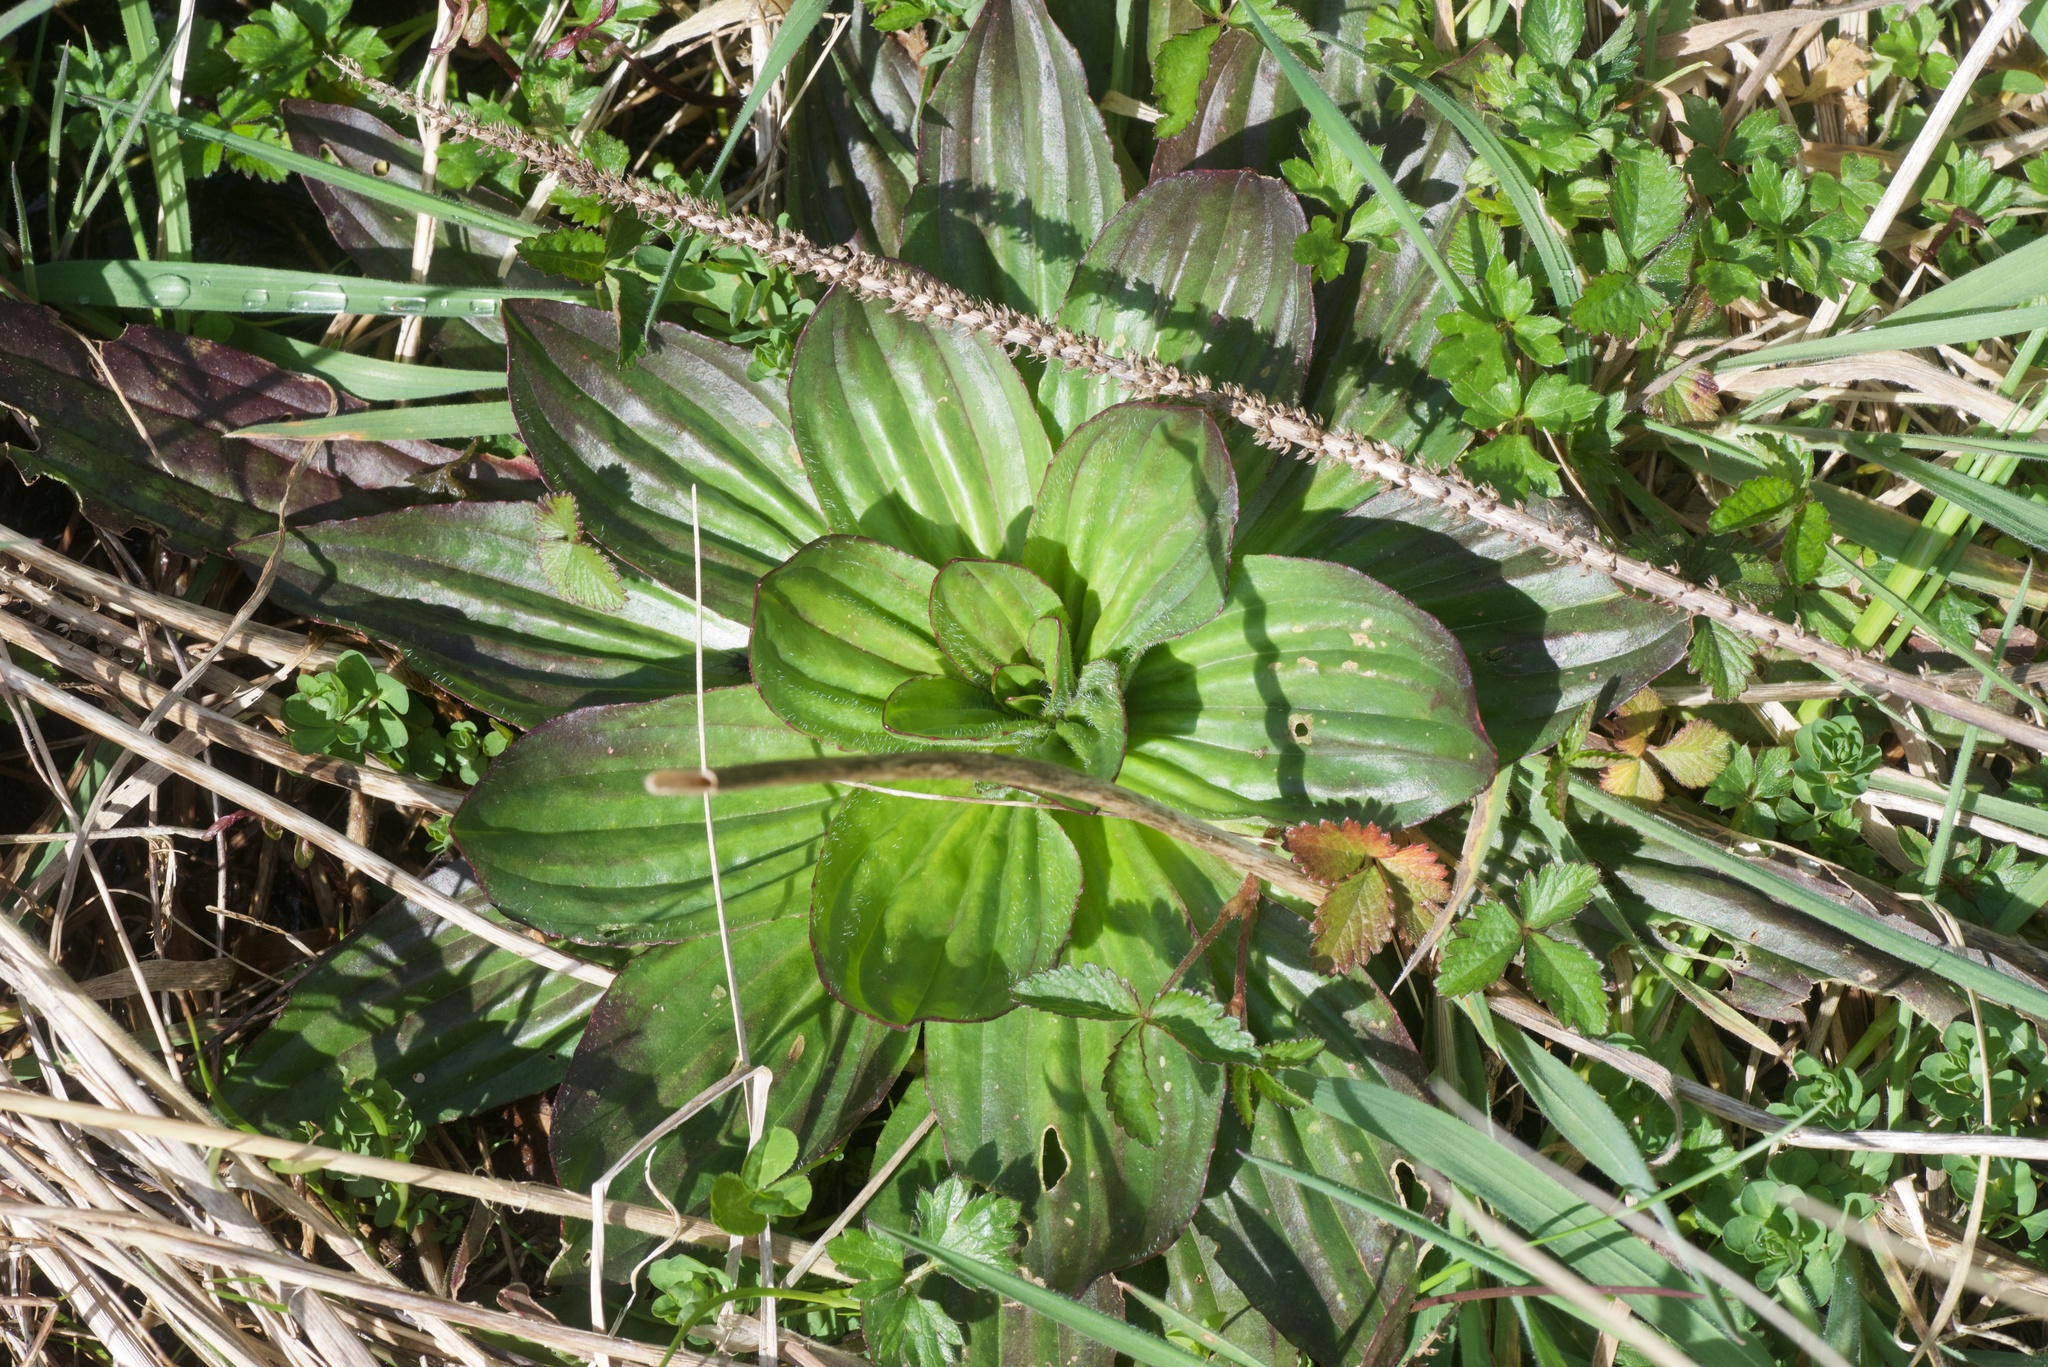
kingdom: Plantae
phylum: Tracheophyta
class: Magnoliopsida
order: Lamiales
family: Plantaginaceae
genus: Plantago
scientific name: Plantago australis
